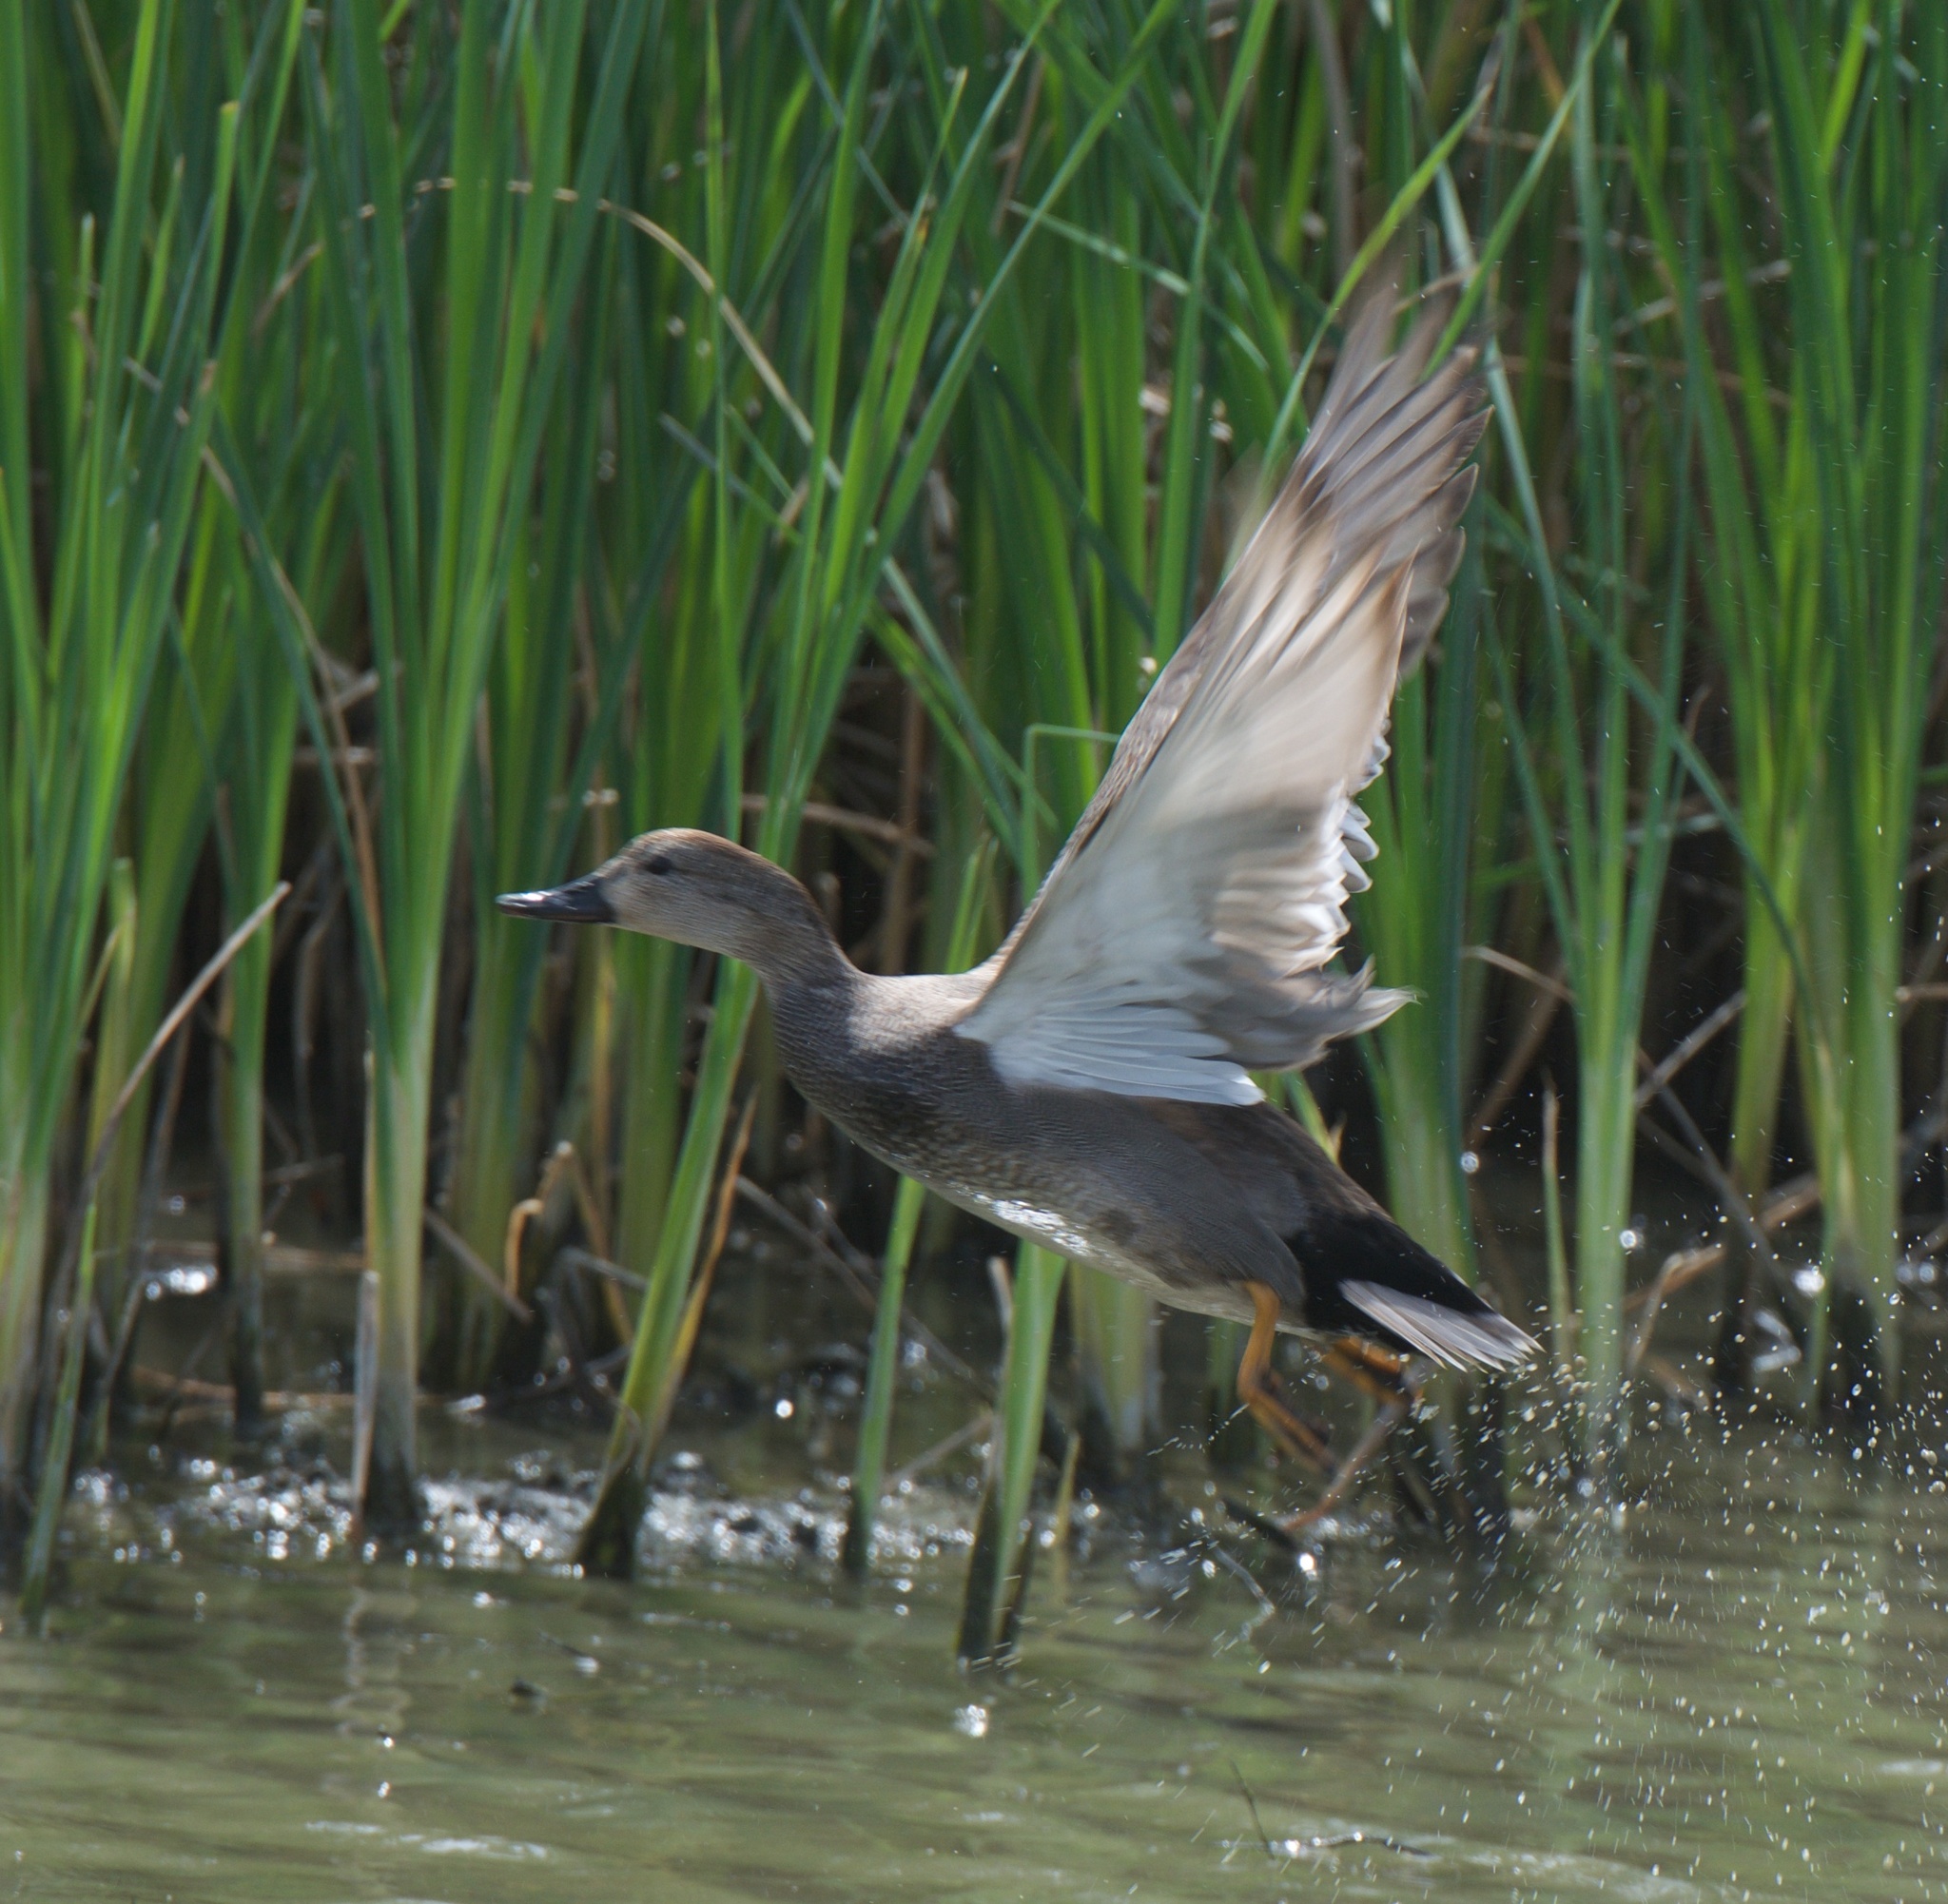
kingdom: Animalia
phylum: Chordata
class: Aves
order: Anseriformes
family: Anatidae
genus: Mareca
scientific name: Mareca strepera
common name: Gadwall
